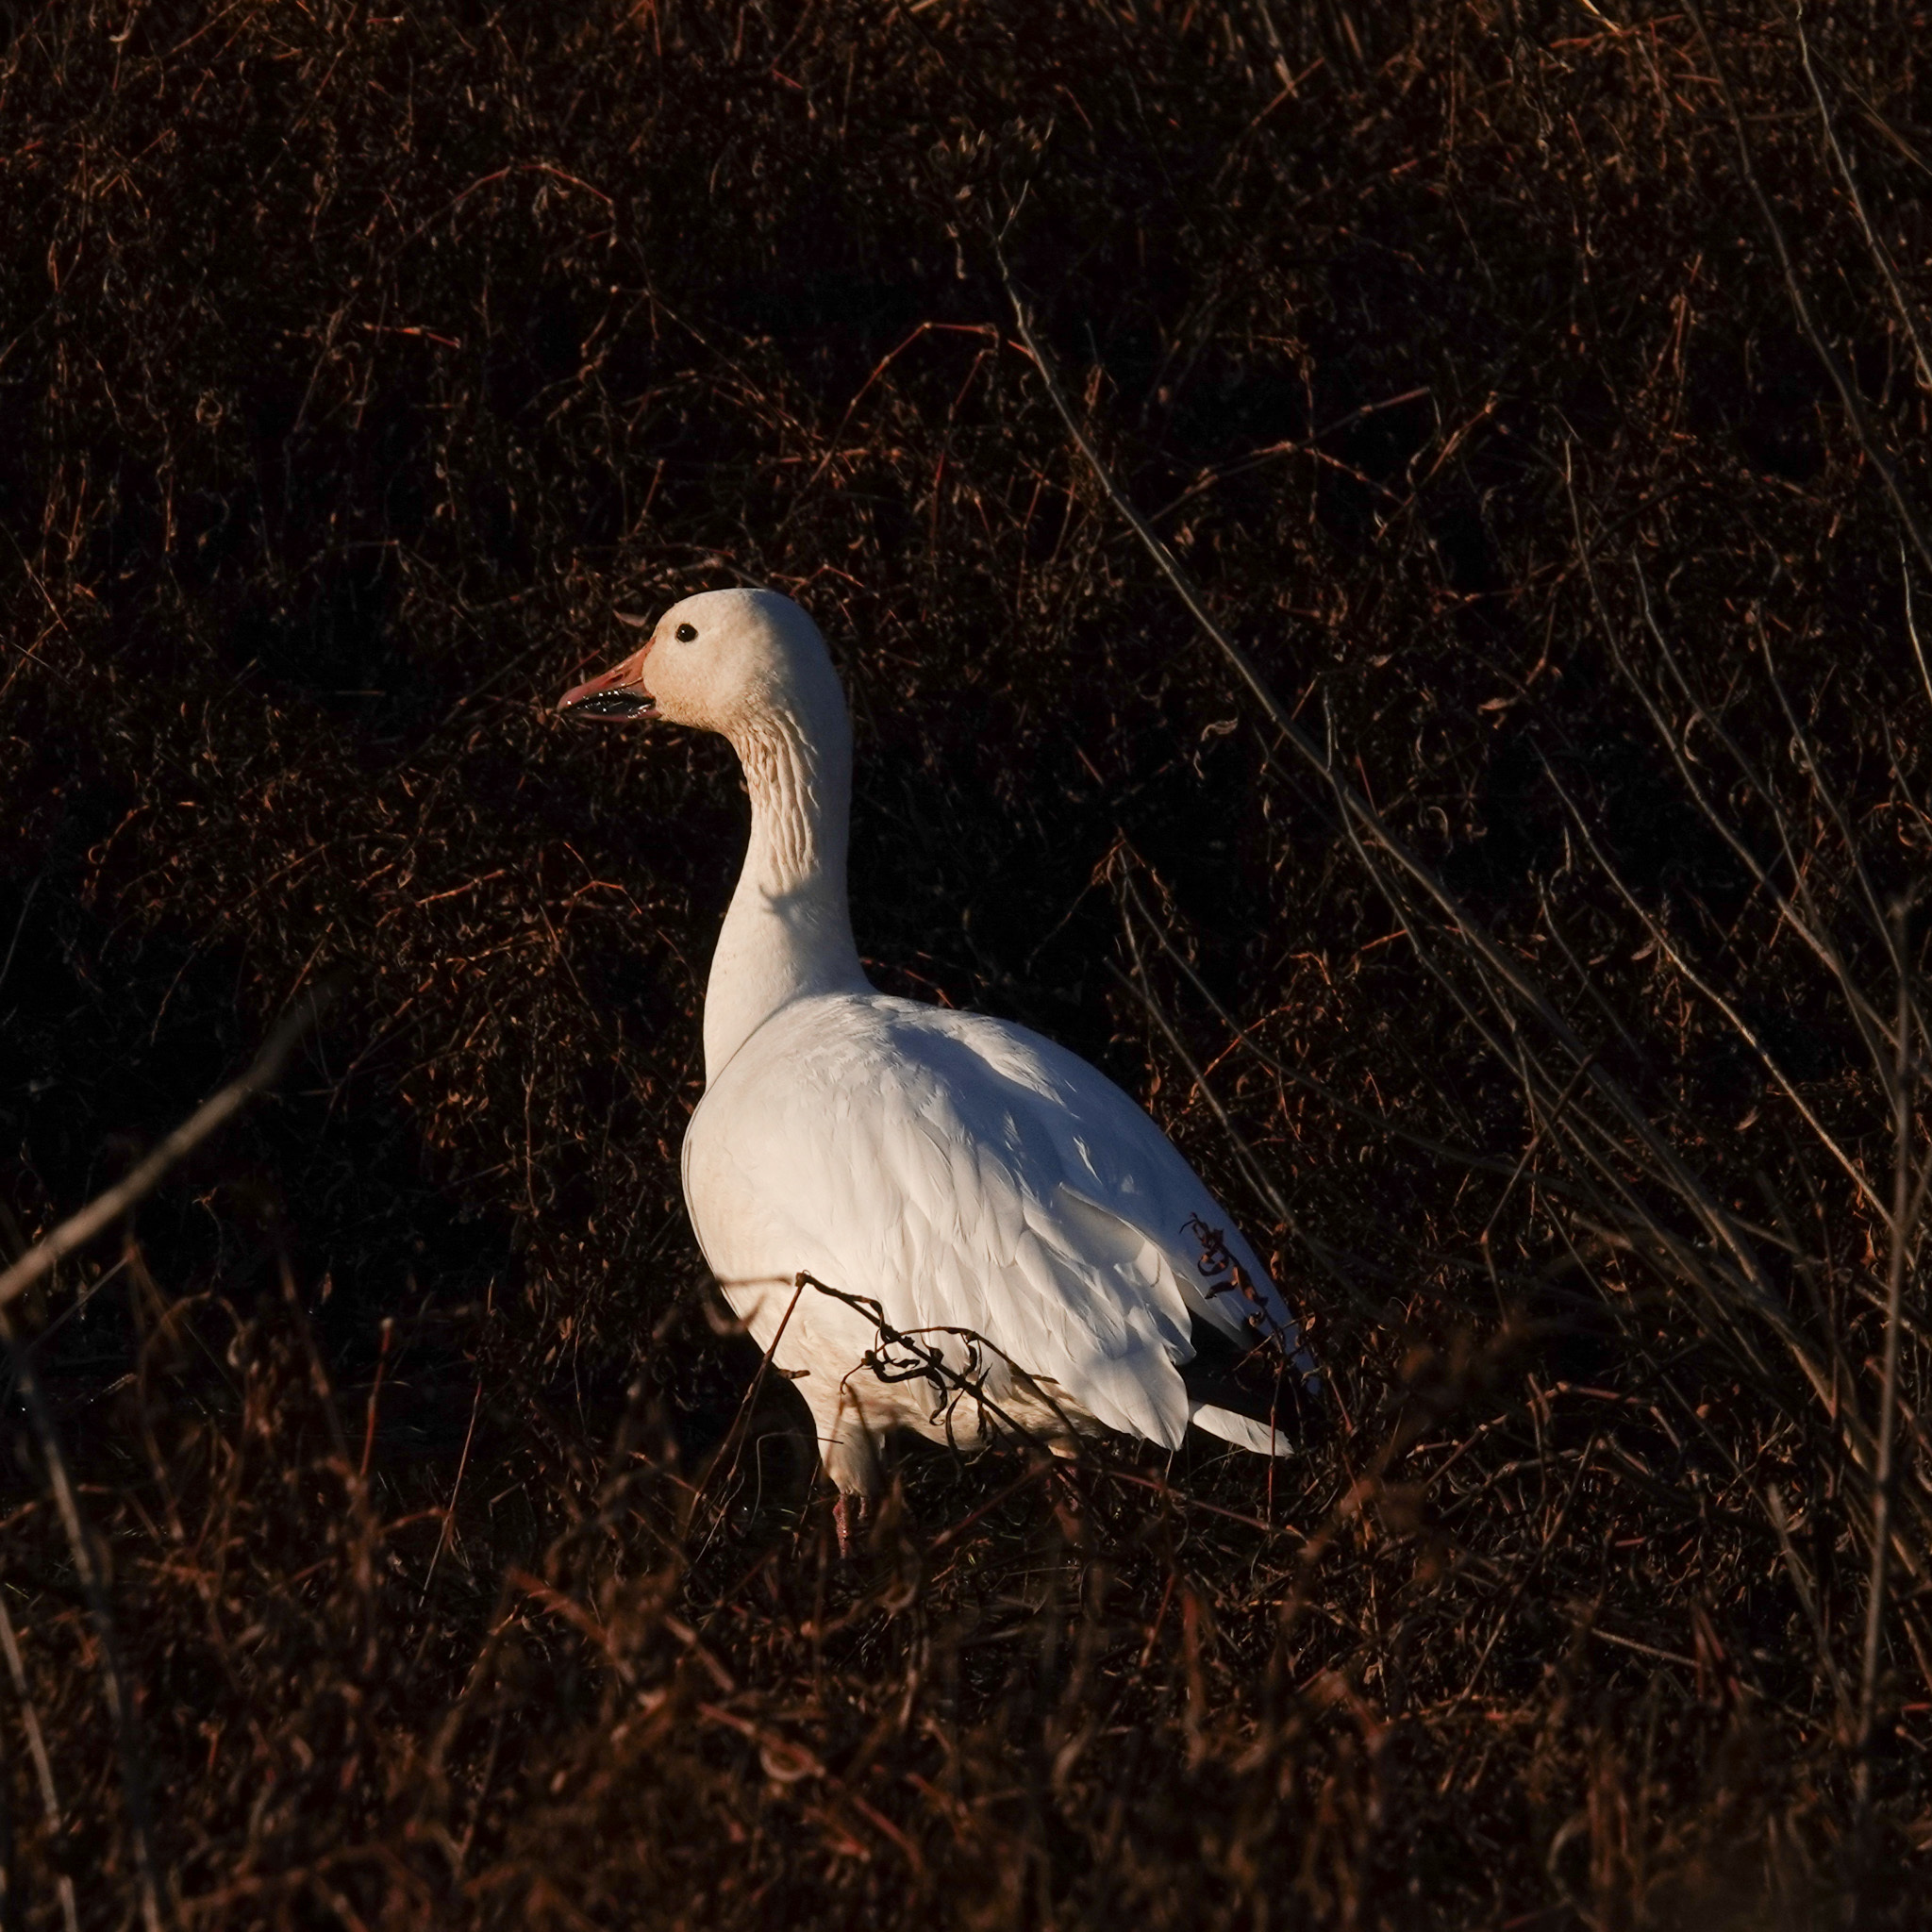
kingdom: Animalia
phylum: Chordata
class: Aves
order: Anseriformes
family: Anatidae
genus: Anser
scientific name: Anser caerulescens
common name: Snow goose
